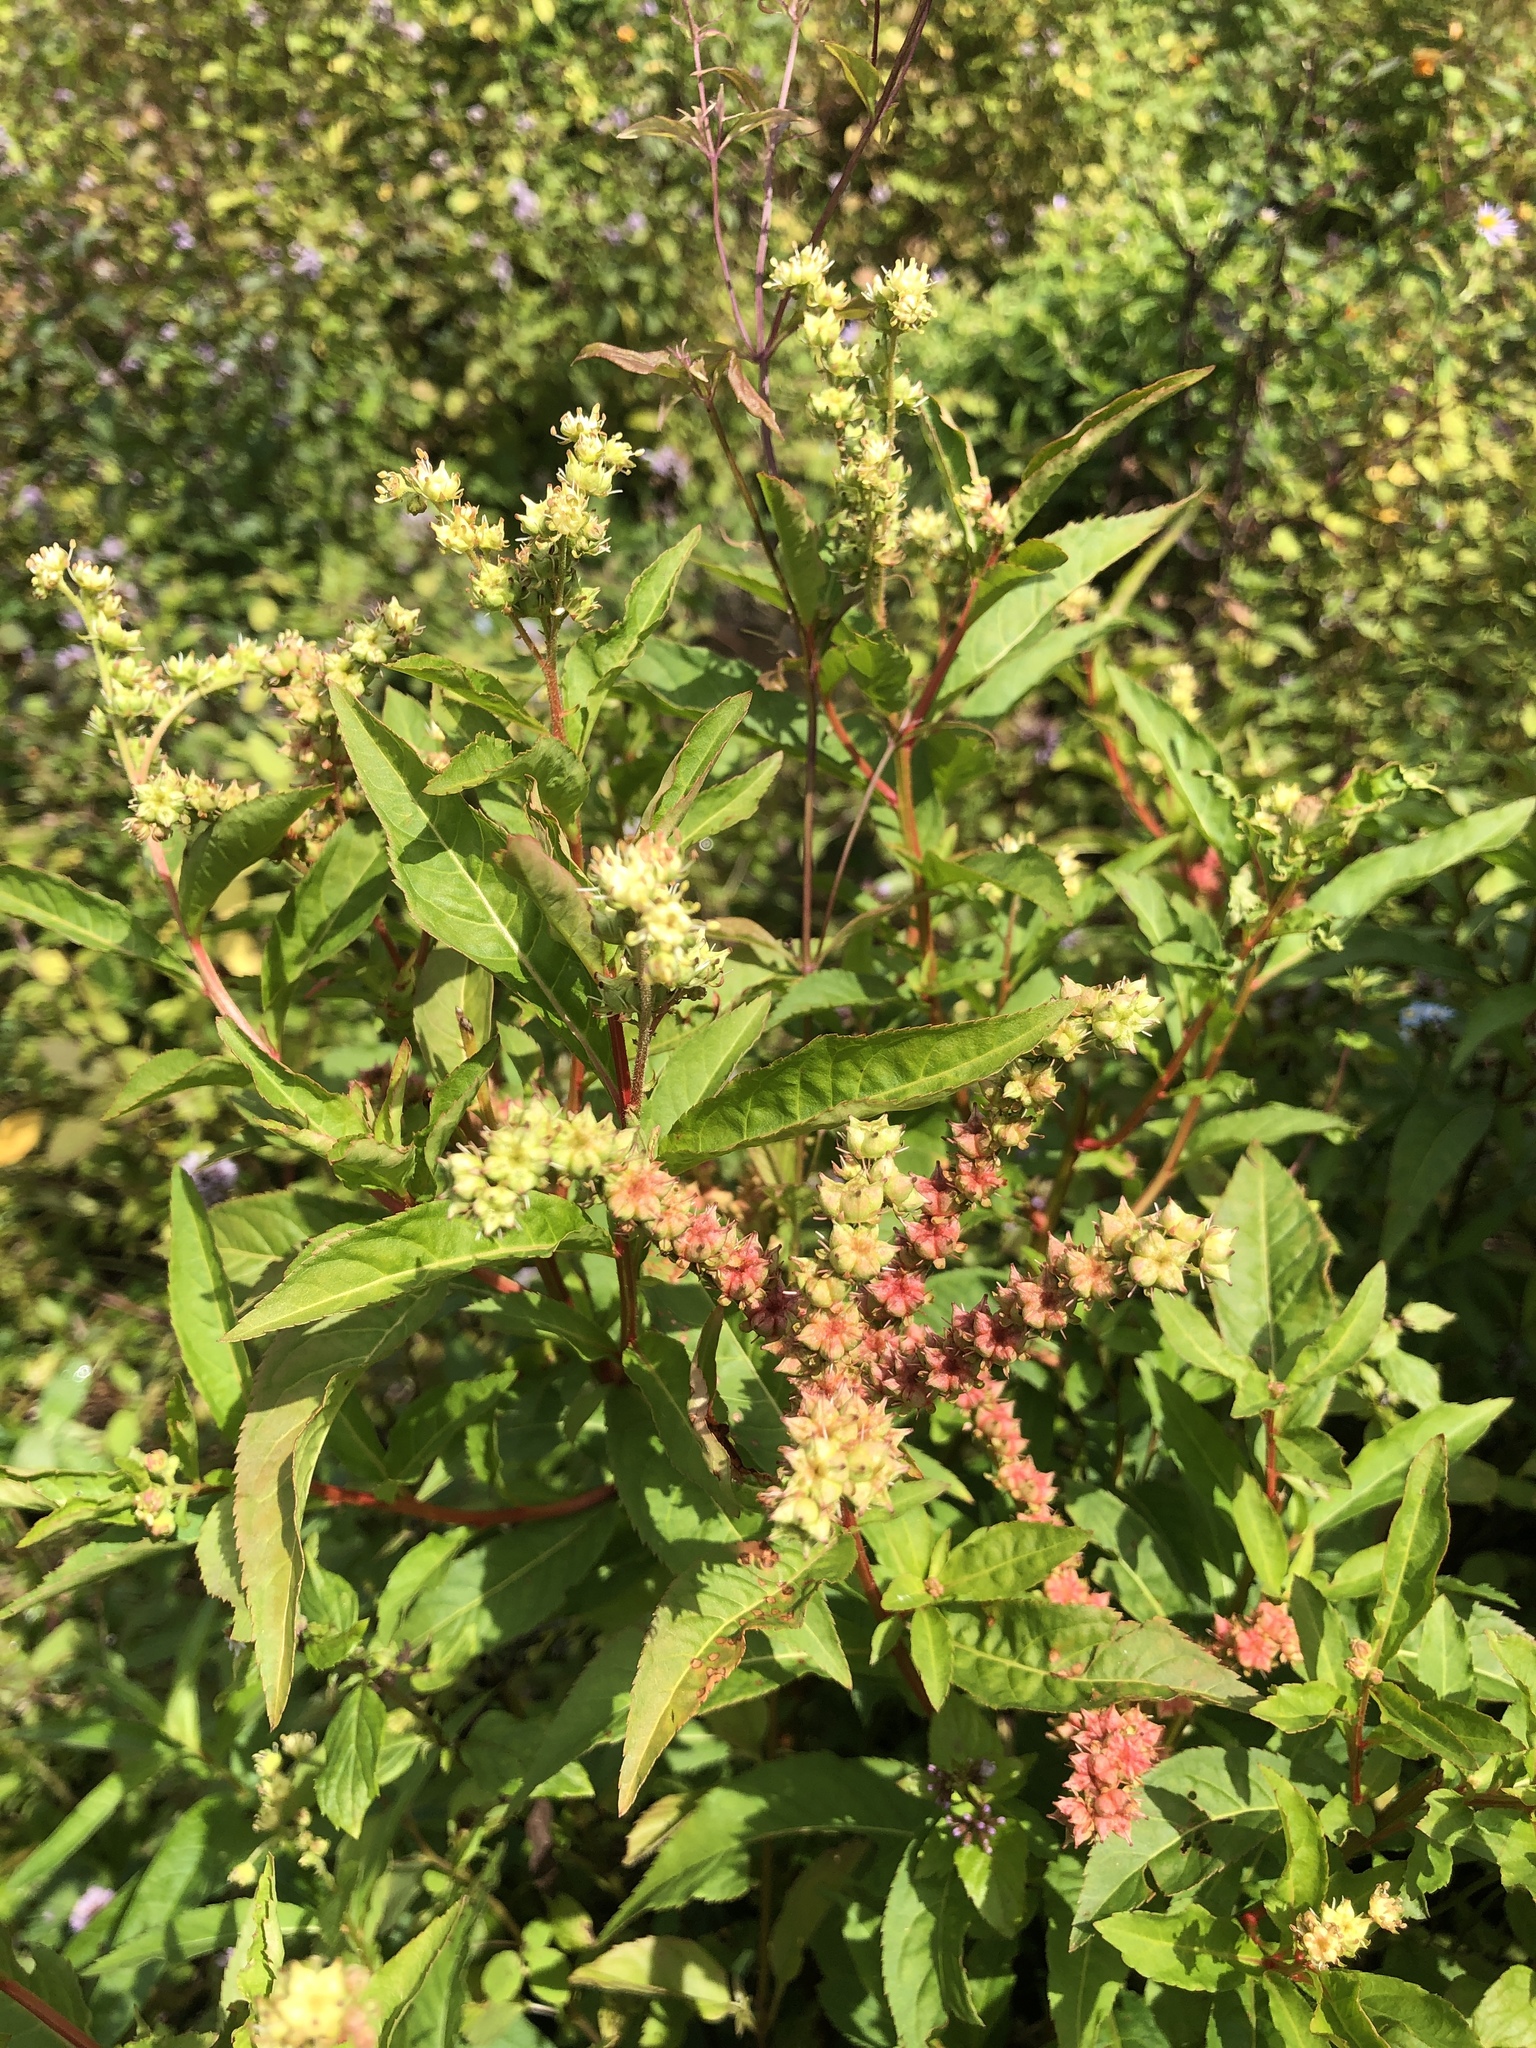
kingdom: Plantae
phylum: Tracheophyta
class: Magnoliopsida
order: Saxifragales
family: Penthoraceae
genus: Penthorum
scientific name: Penthorum sedoides
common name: Ditch stonecrop
